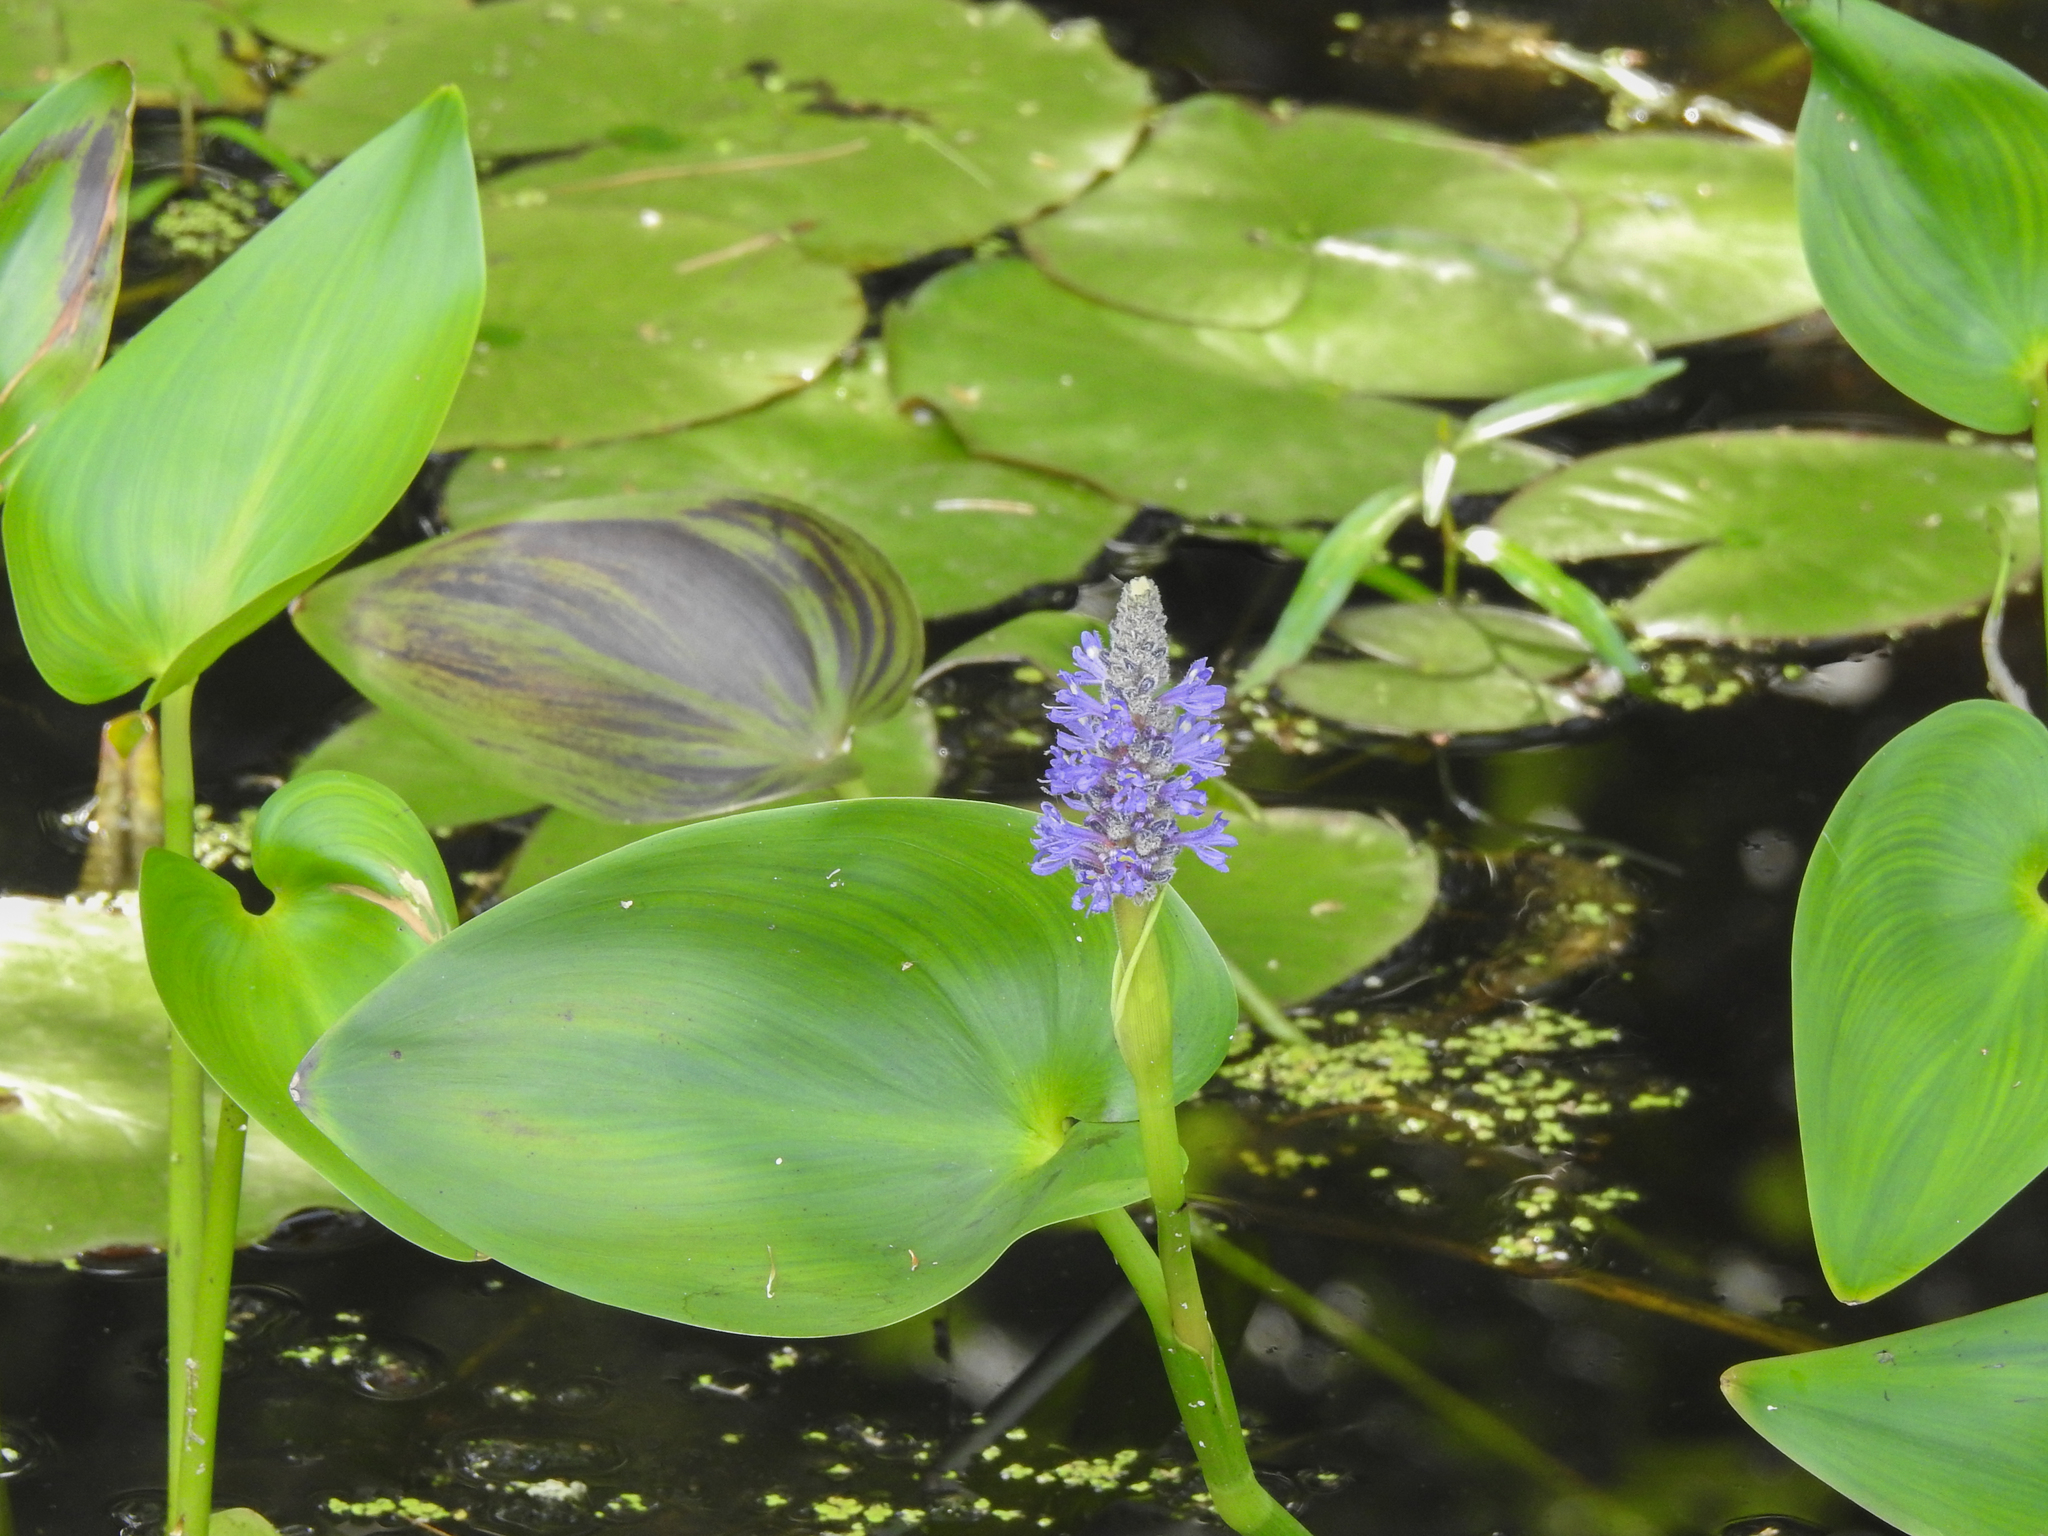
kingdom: Plantae
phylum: Tracheophyta
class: Liliopsida
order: Commelinales
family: Pontederiaceae
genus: Pontederia
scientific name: Pontederia cordata
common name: Pickerelweed
